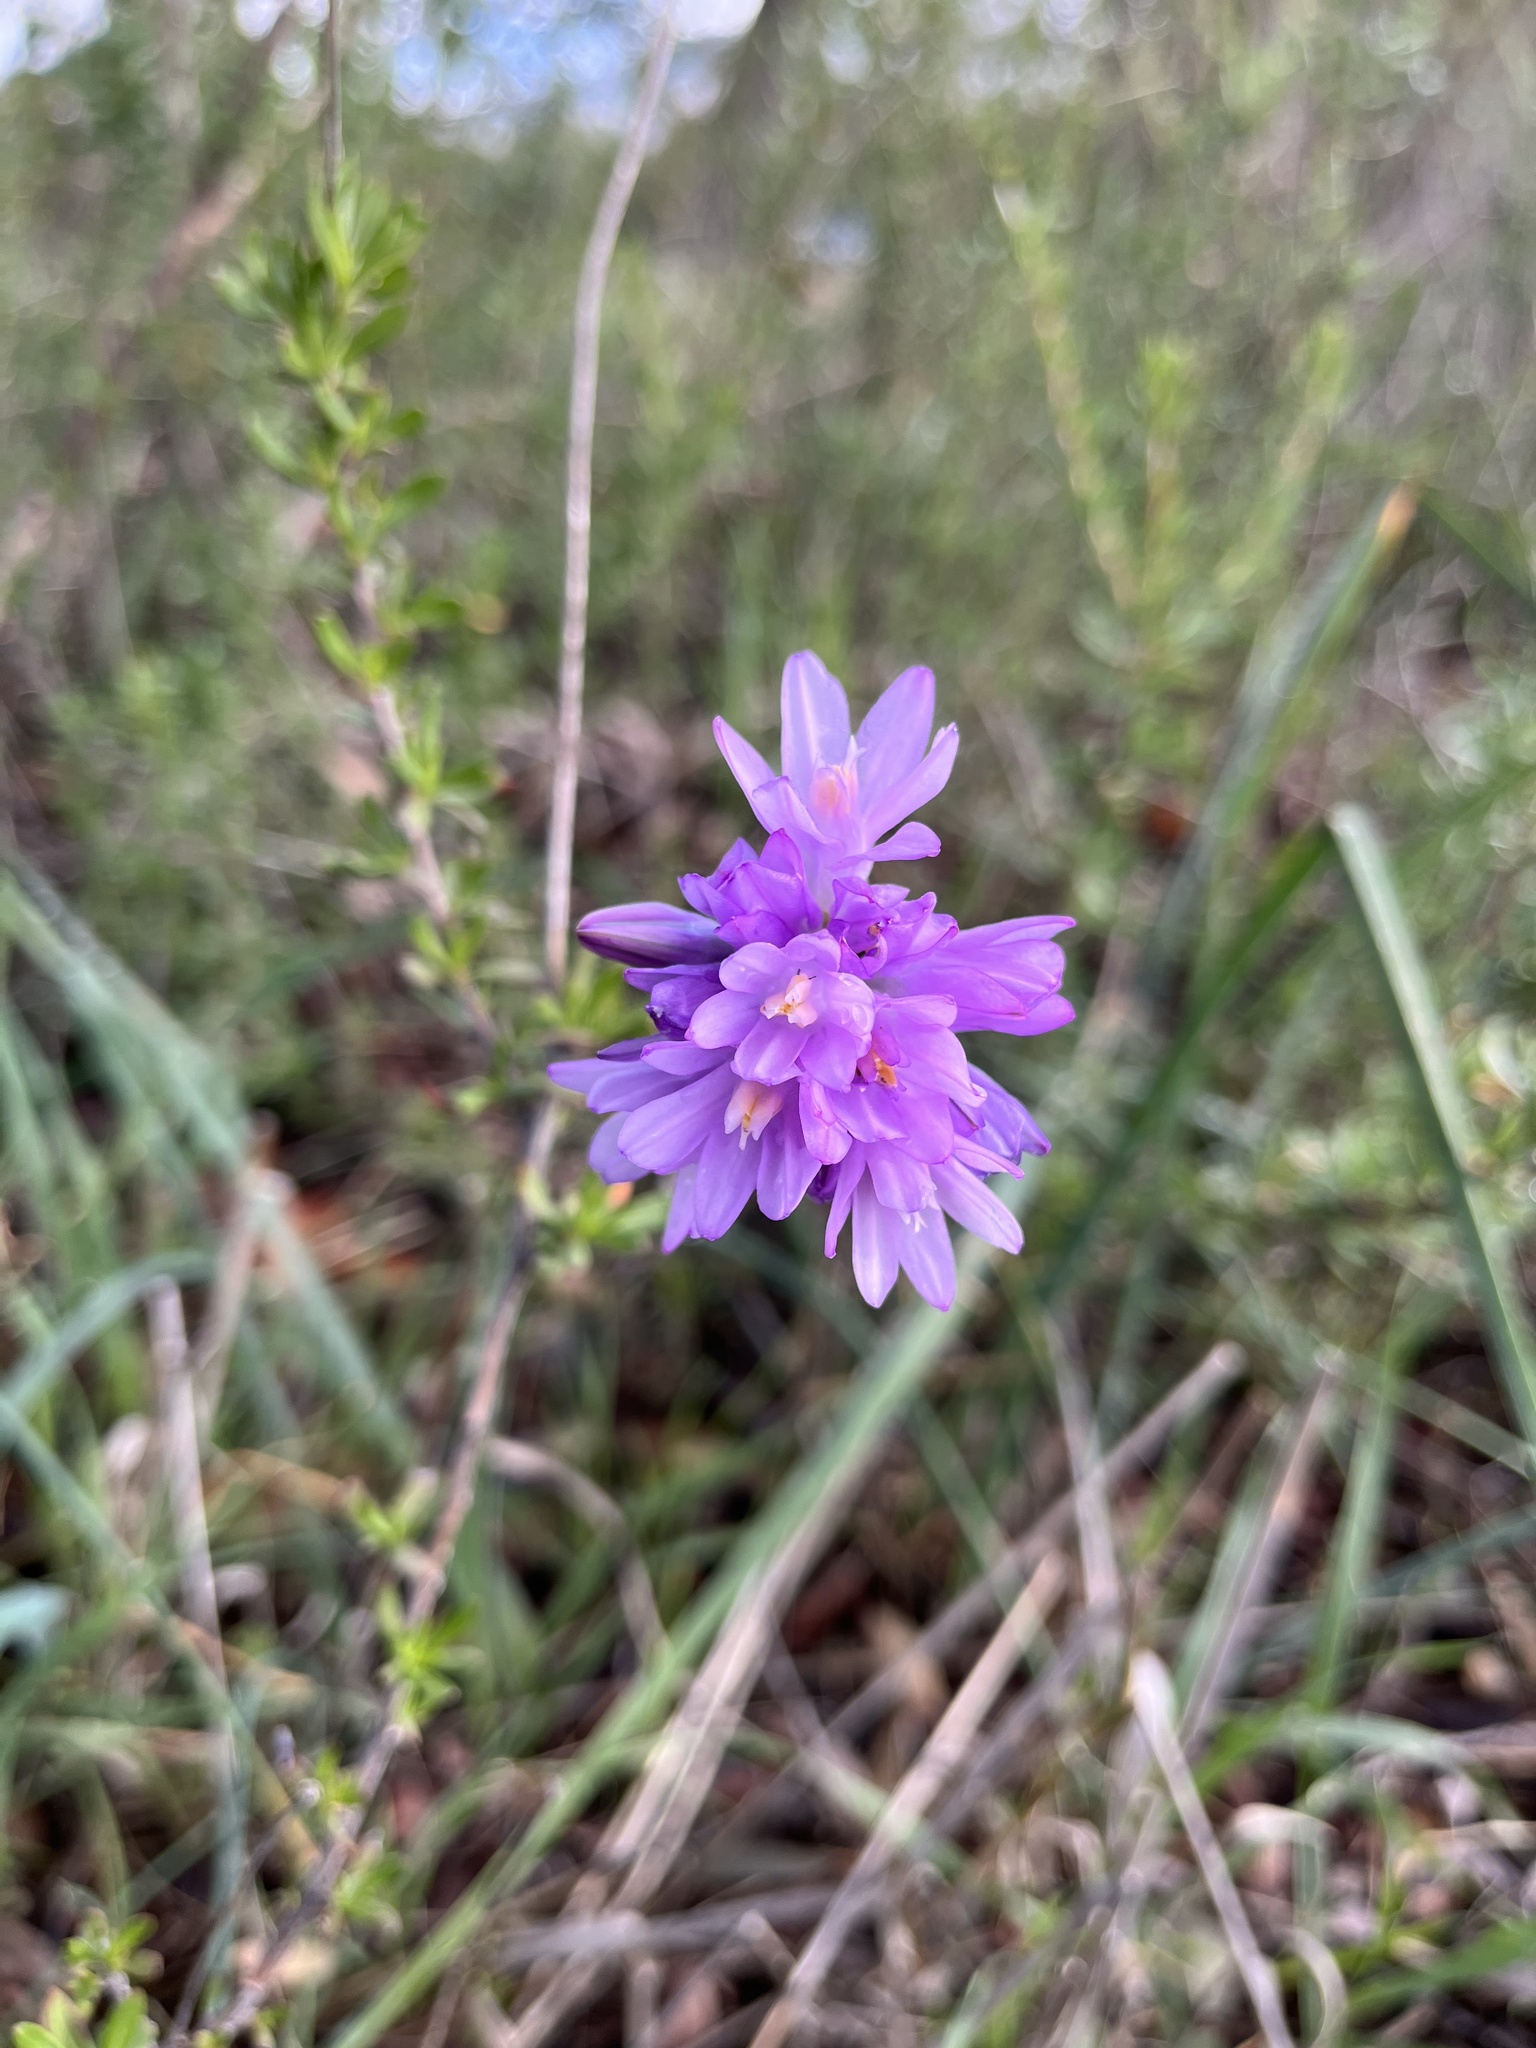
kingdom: Plantae
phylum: Tracheophyta
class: Liliopsida
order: Asparagales
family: Asparagaceae
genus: Dipterostemon
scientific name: Dipterostemon capitatus
